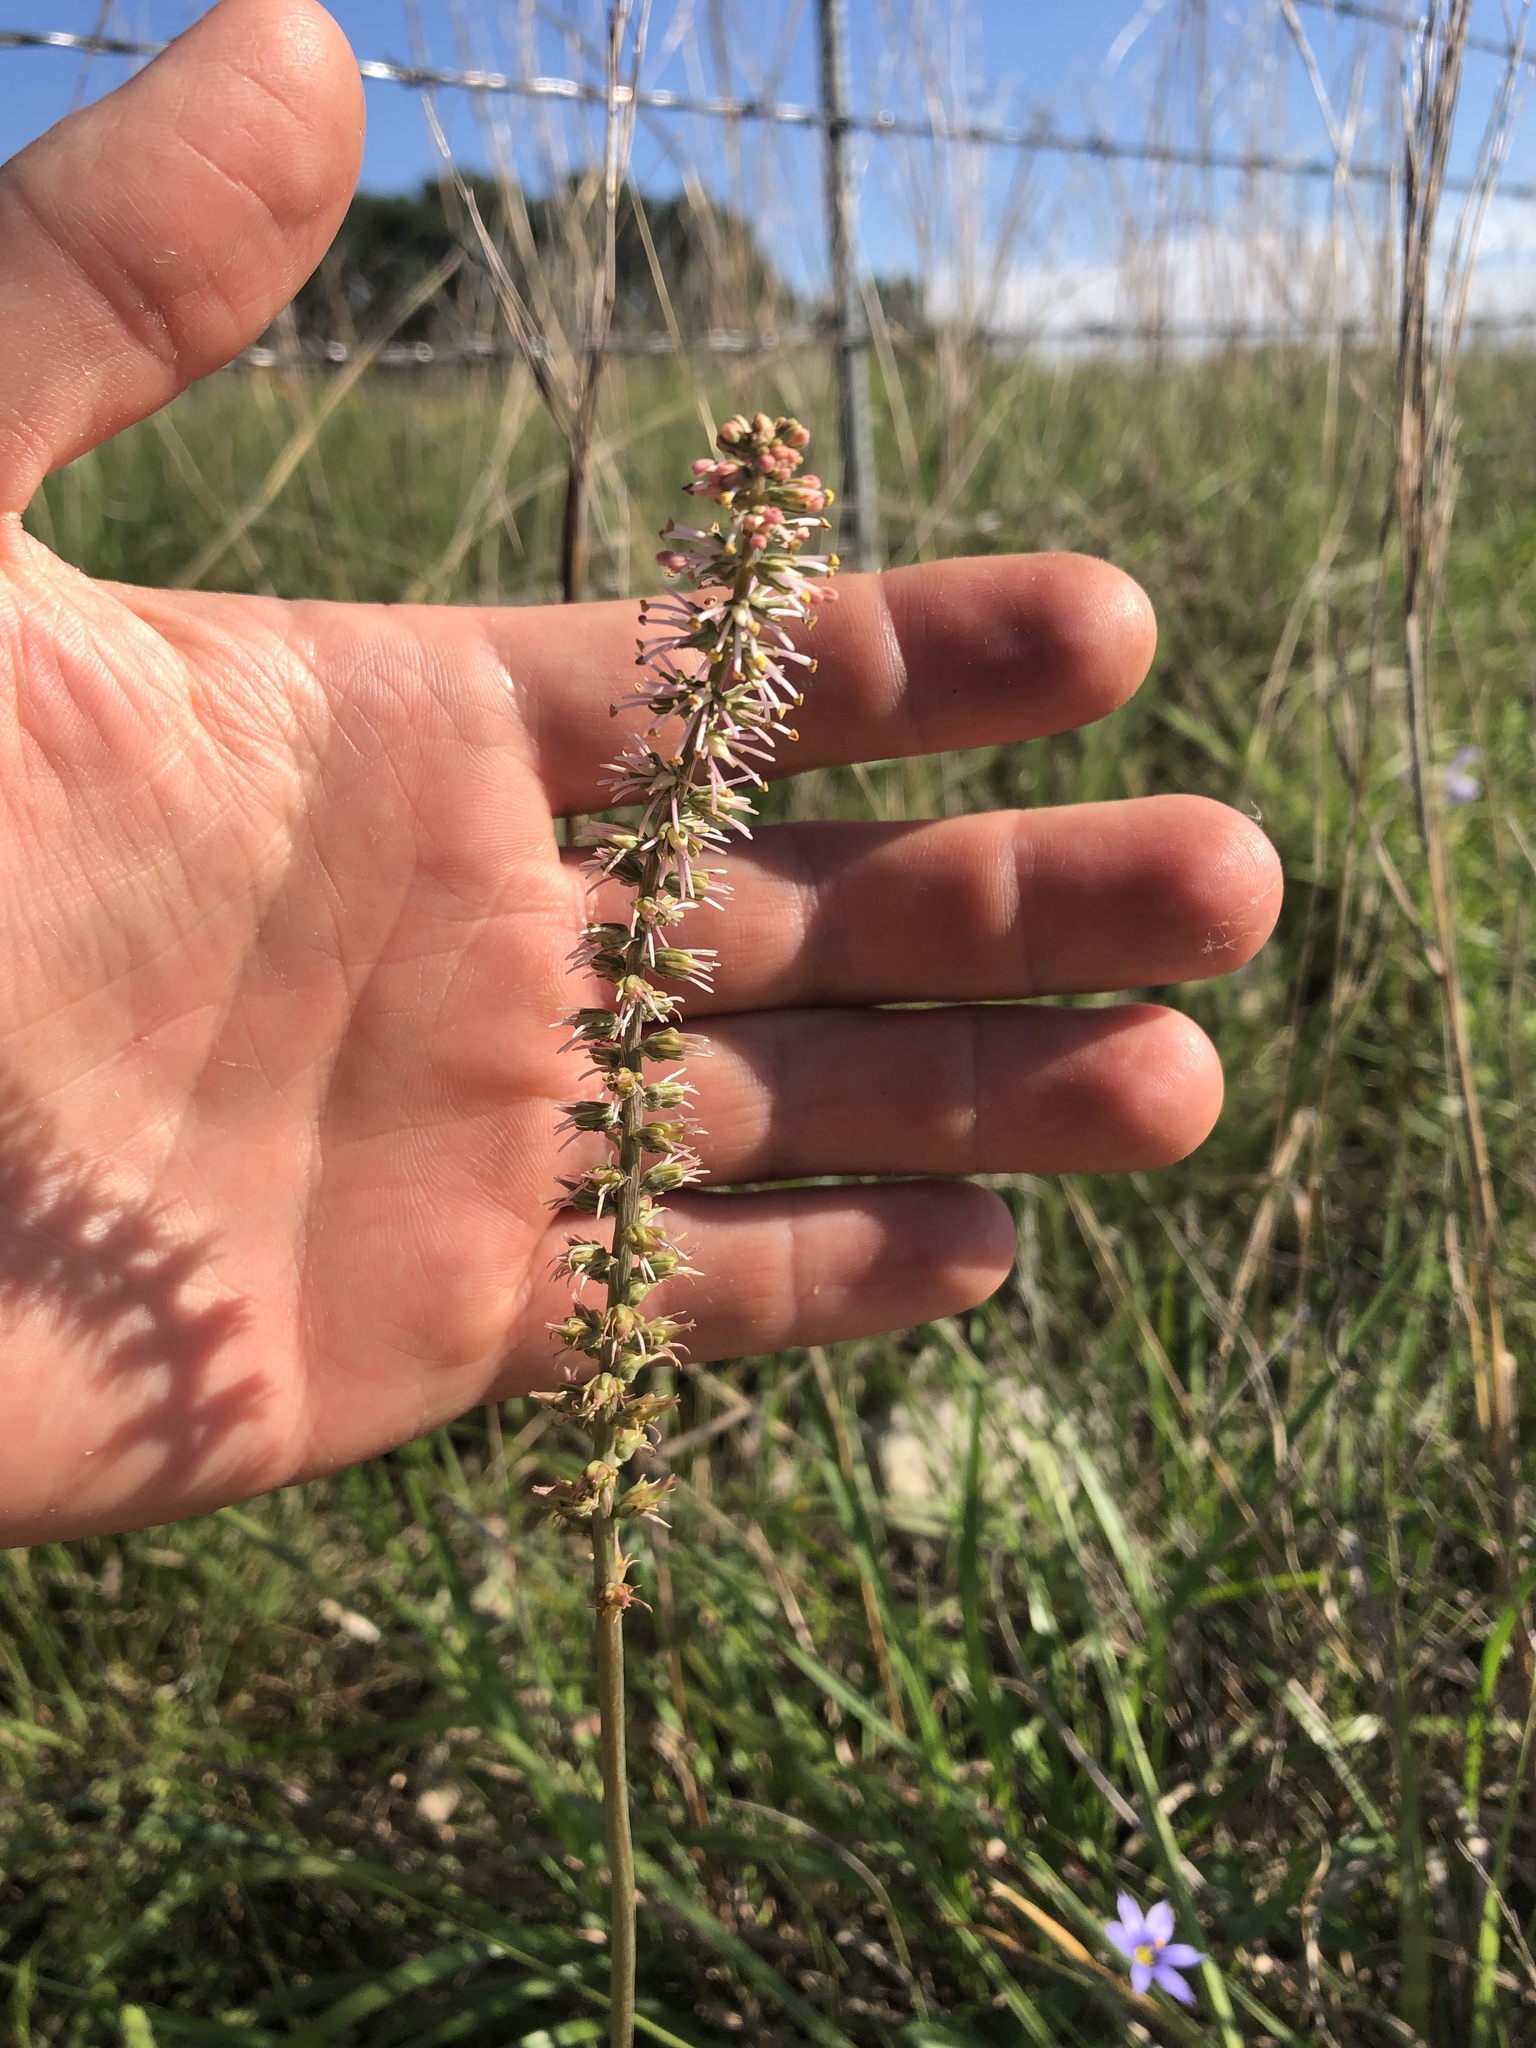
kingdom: Plantae
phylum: Tracheophyta
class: Liliopsida
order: Liliales
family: Melanthiaceae
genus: Schoenocaulon
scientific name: Schoenocaulon texanum
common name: Texas feather-shank
